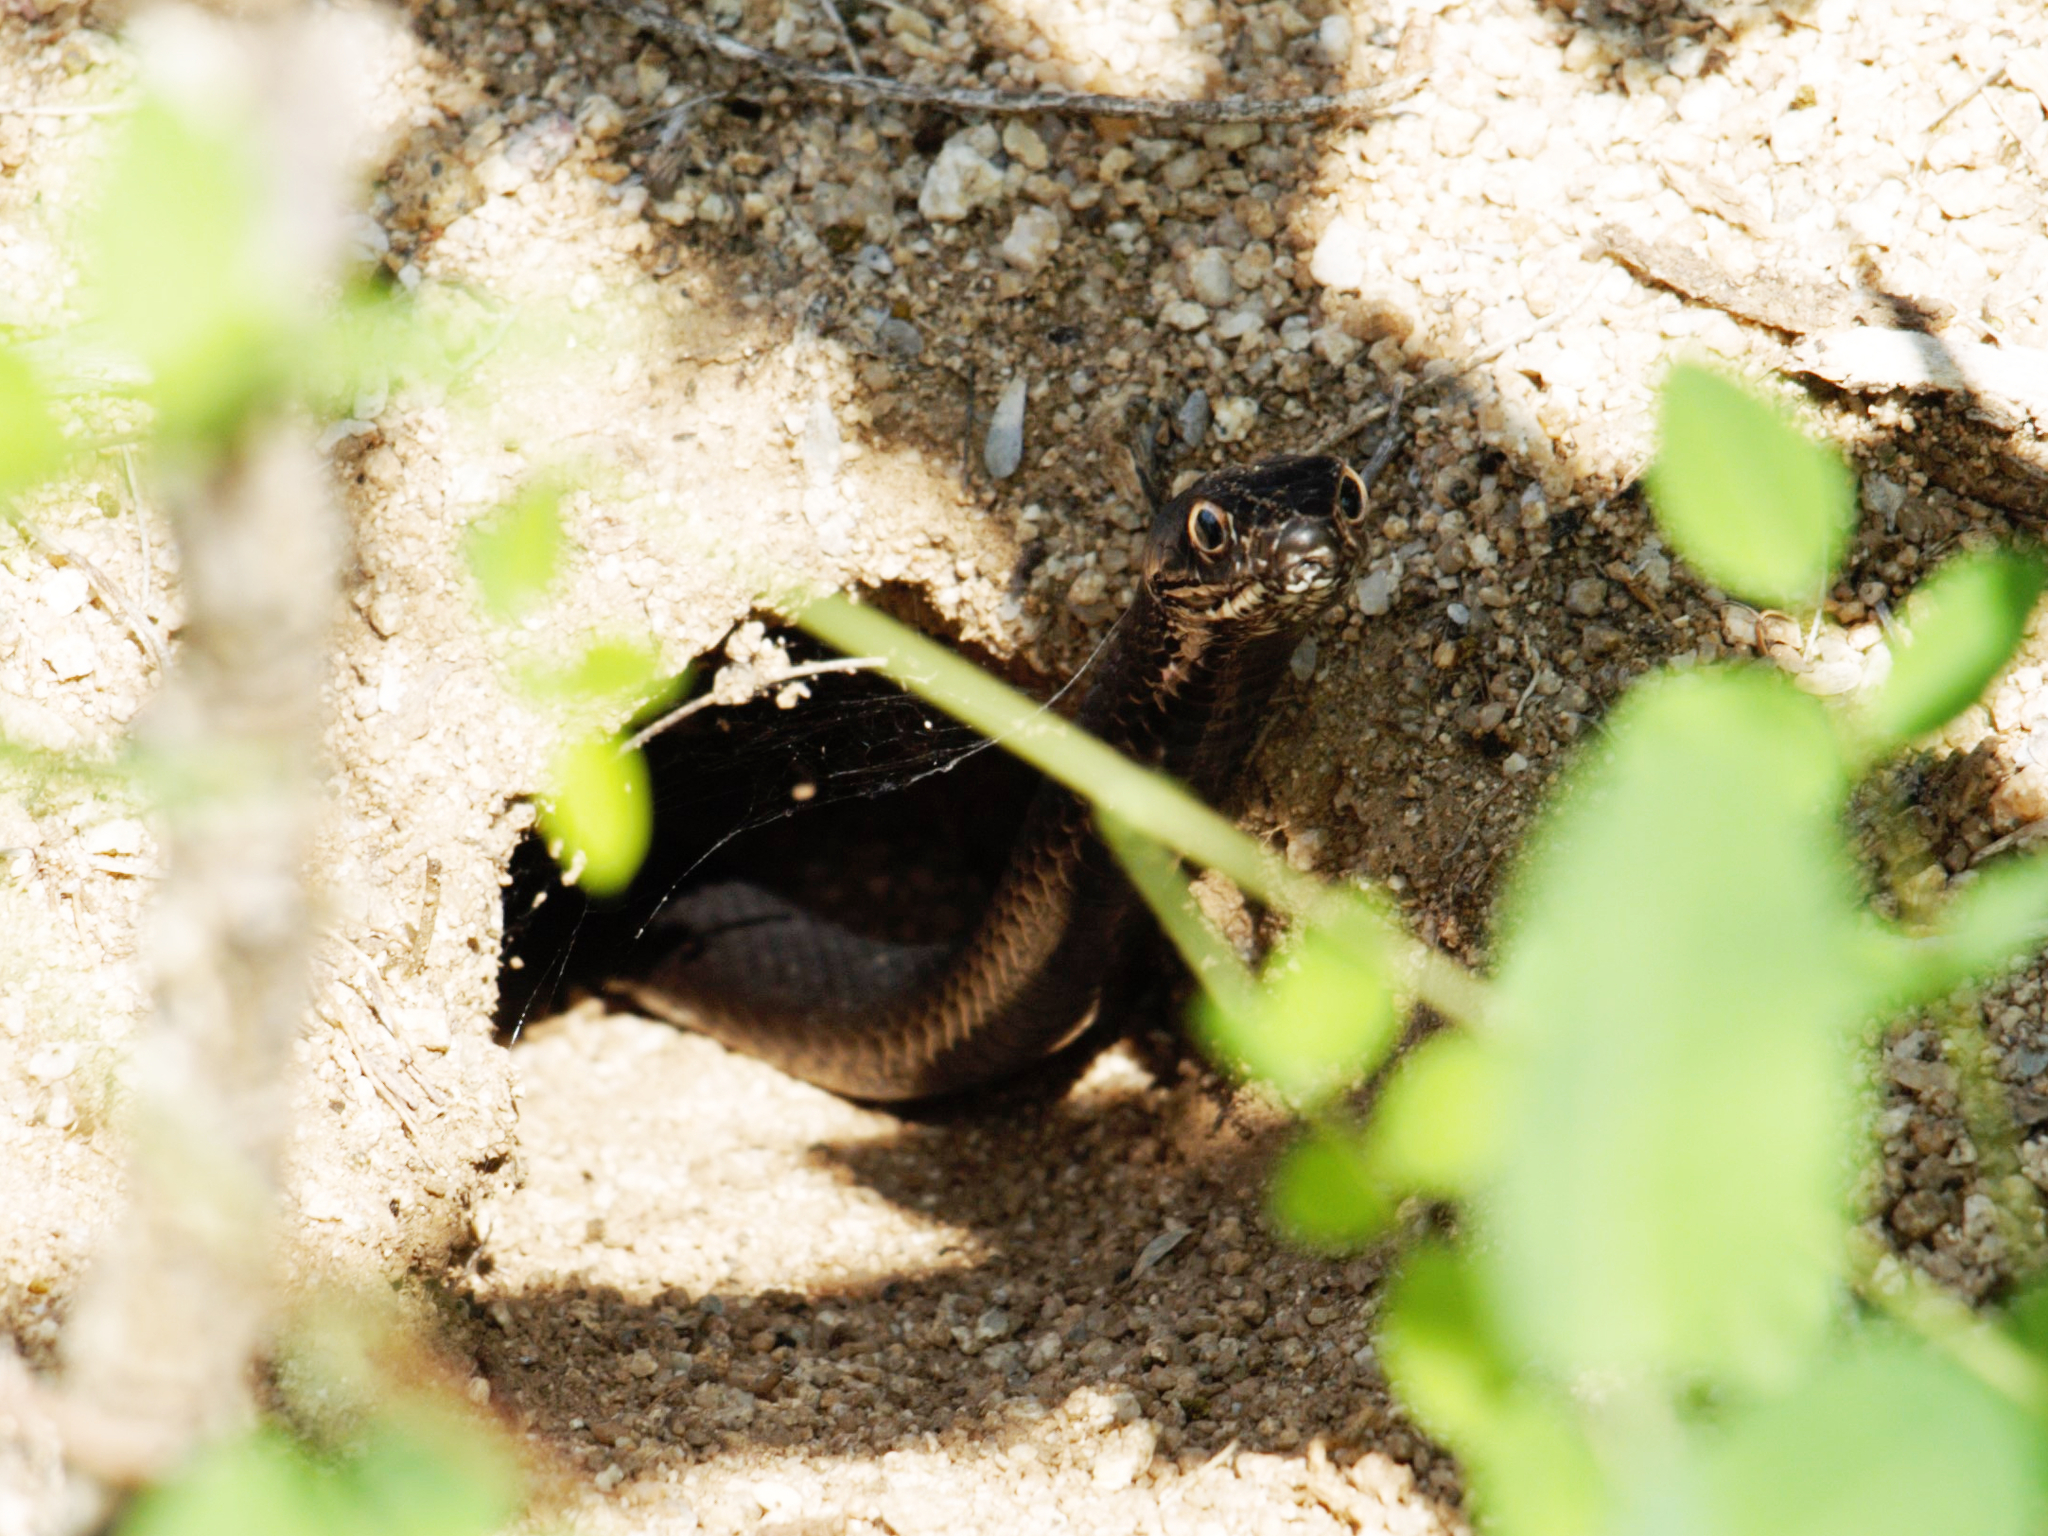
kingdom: Animalia
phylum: Chordata
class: Squamata
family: Colubridae
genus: Masticophis
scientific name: Masticophis flagellum
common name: Coachwhip
